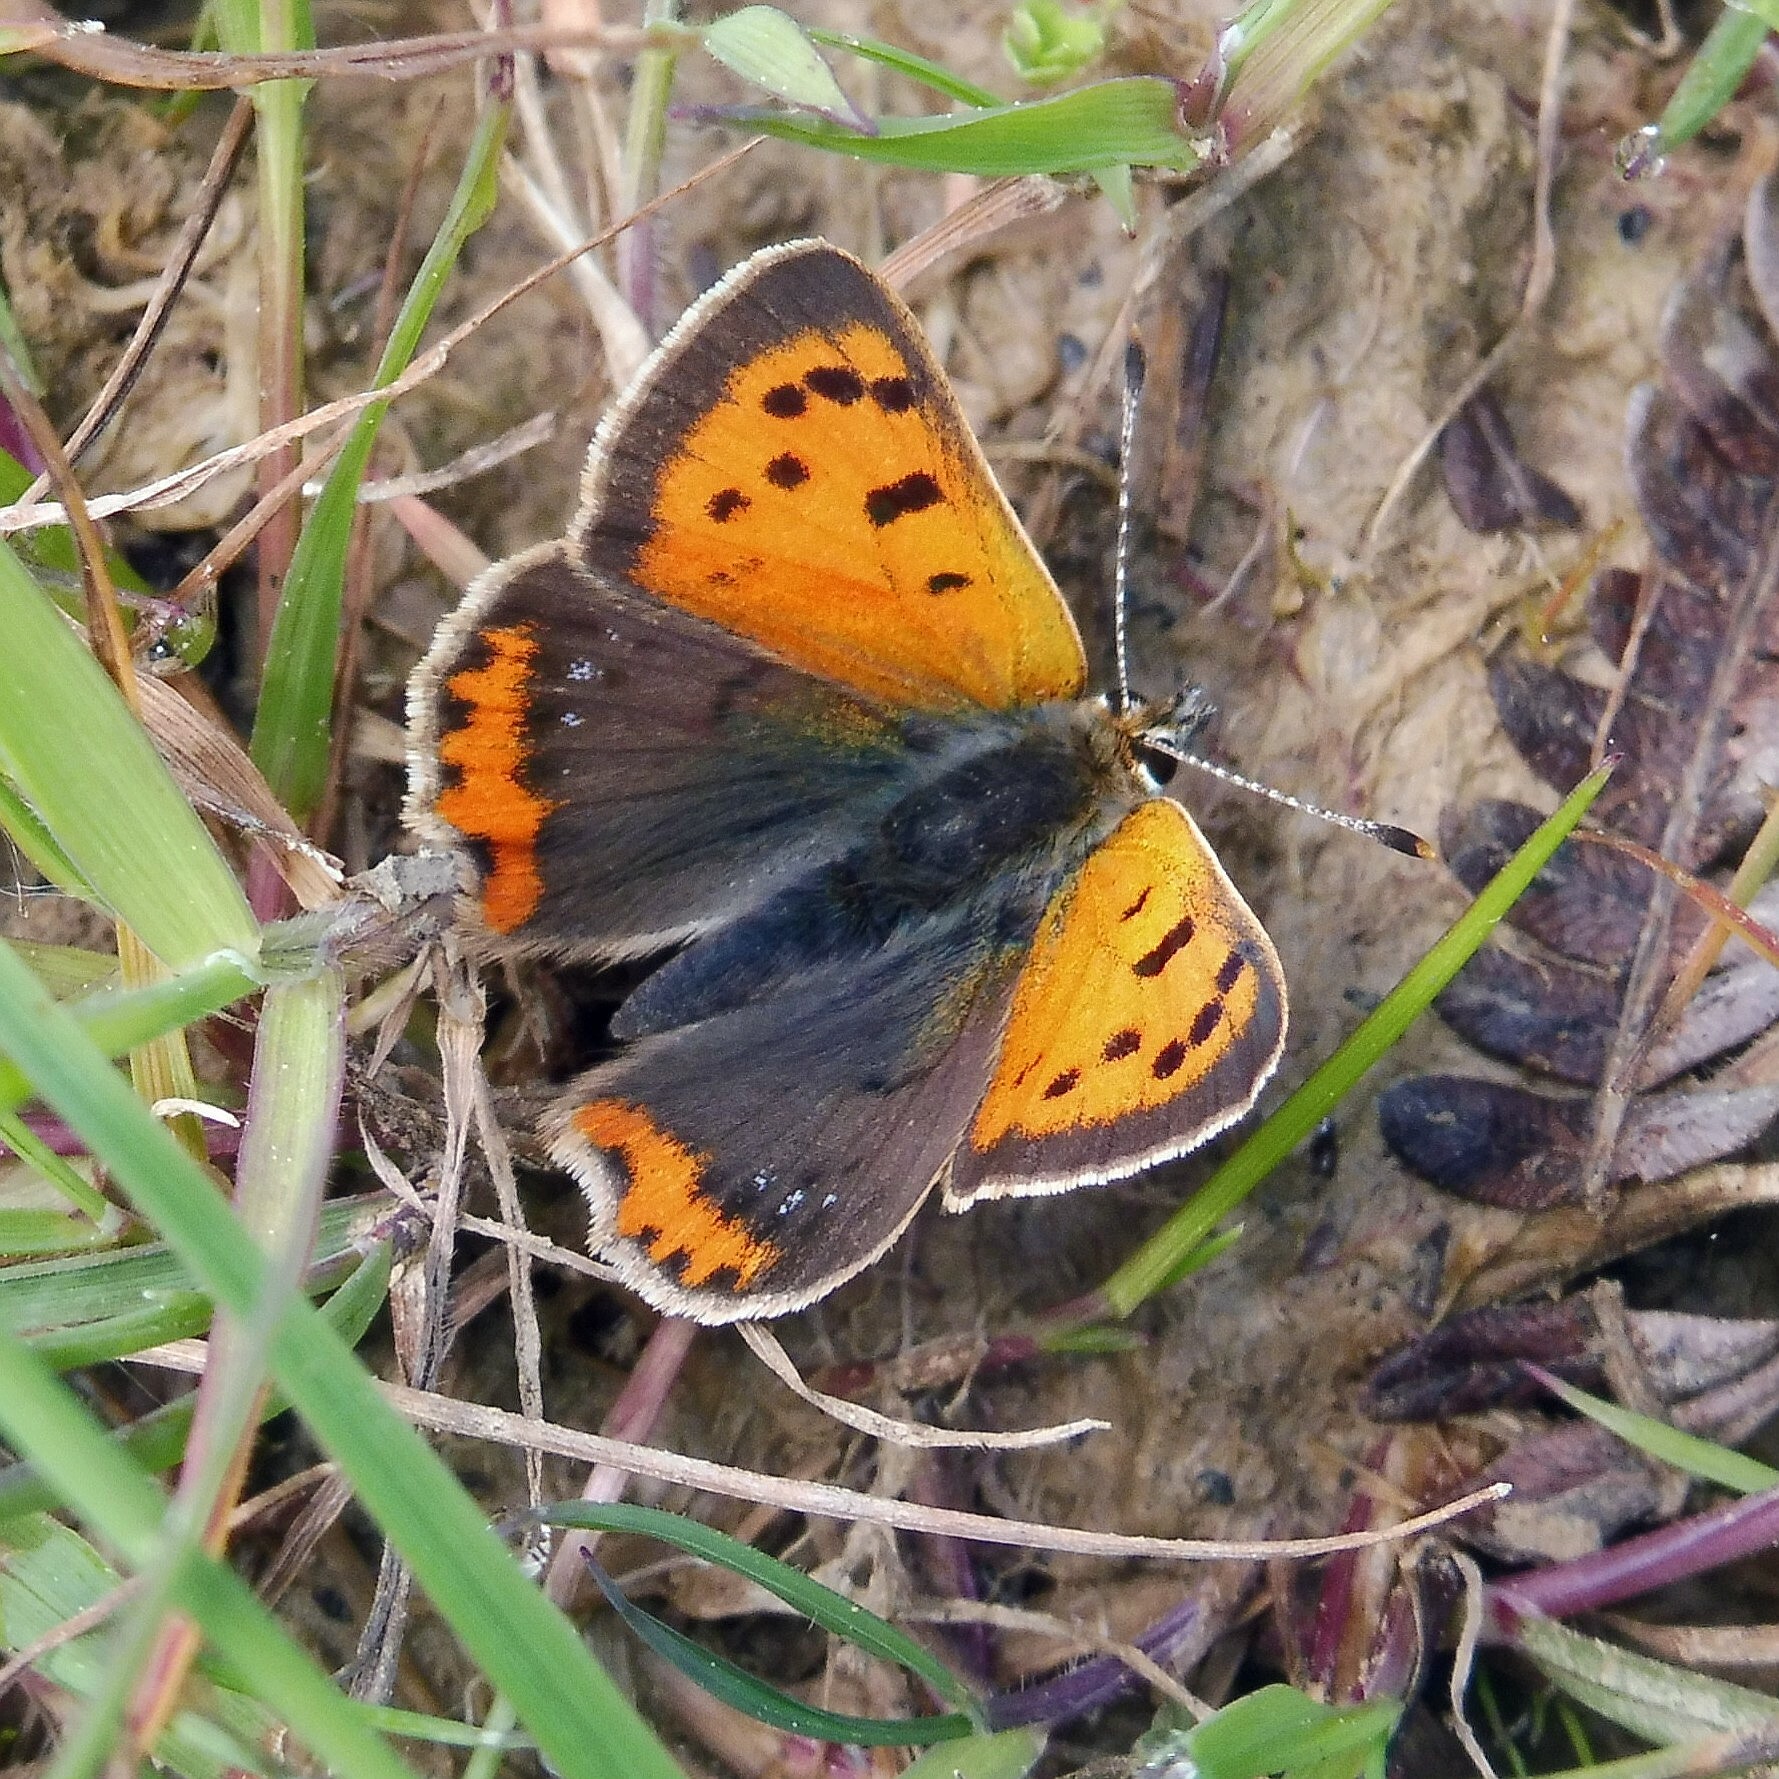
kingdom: Animalia
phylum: Arthropoda
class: Insecta
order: Lepidoptera
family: Lycaenidae
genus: Lycaena
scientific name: Lycaena phlaeas
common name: Small copper
